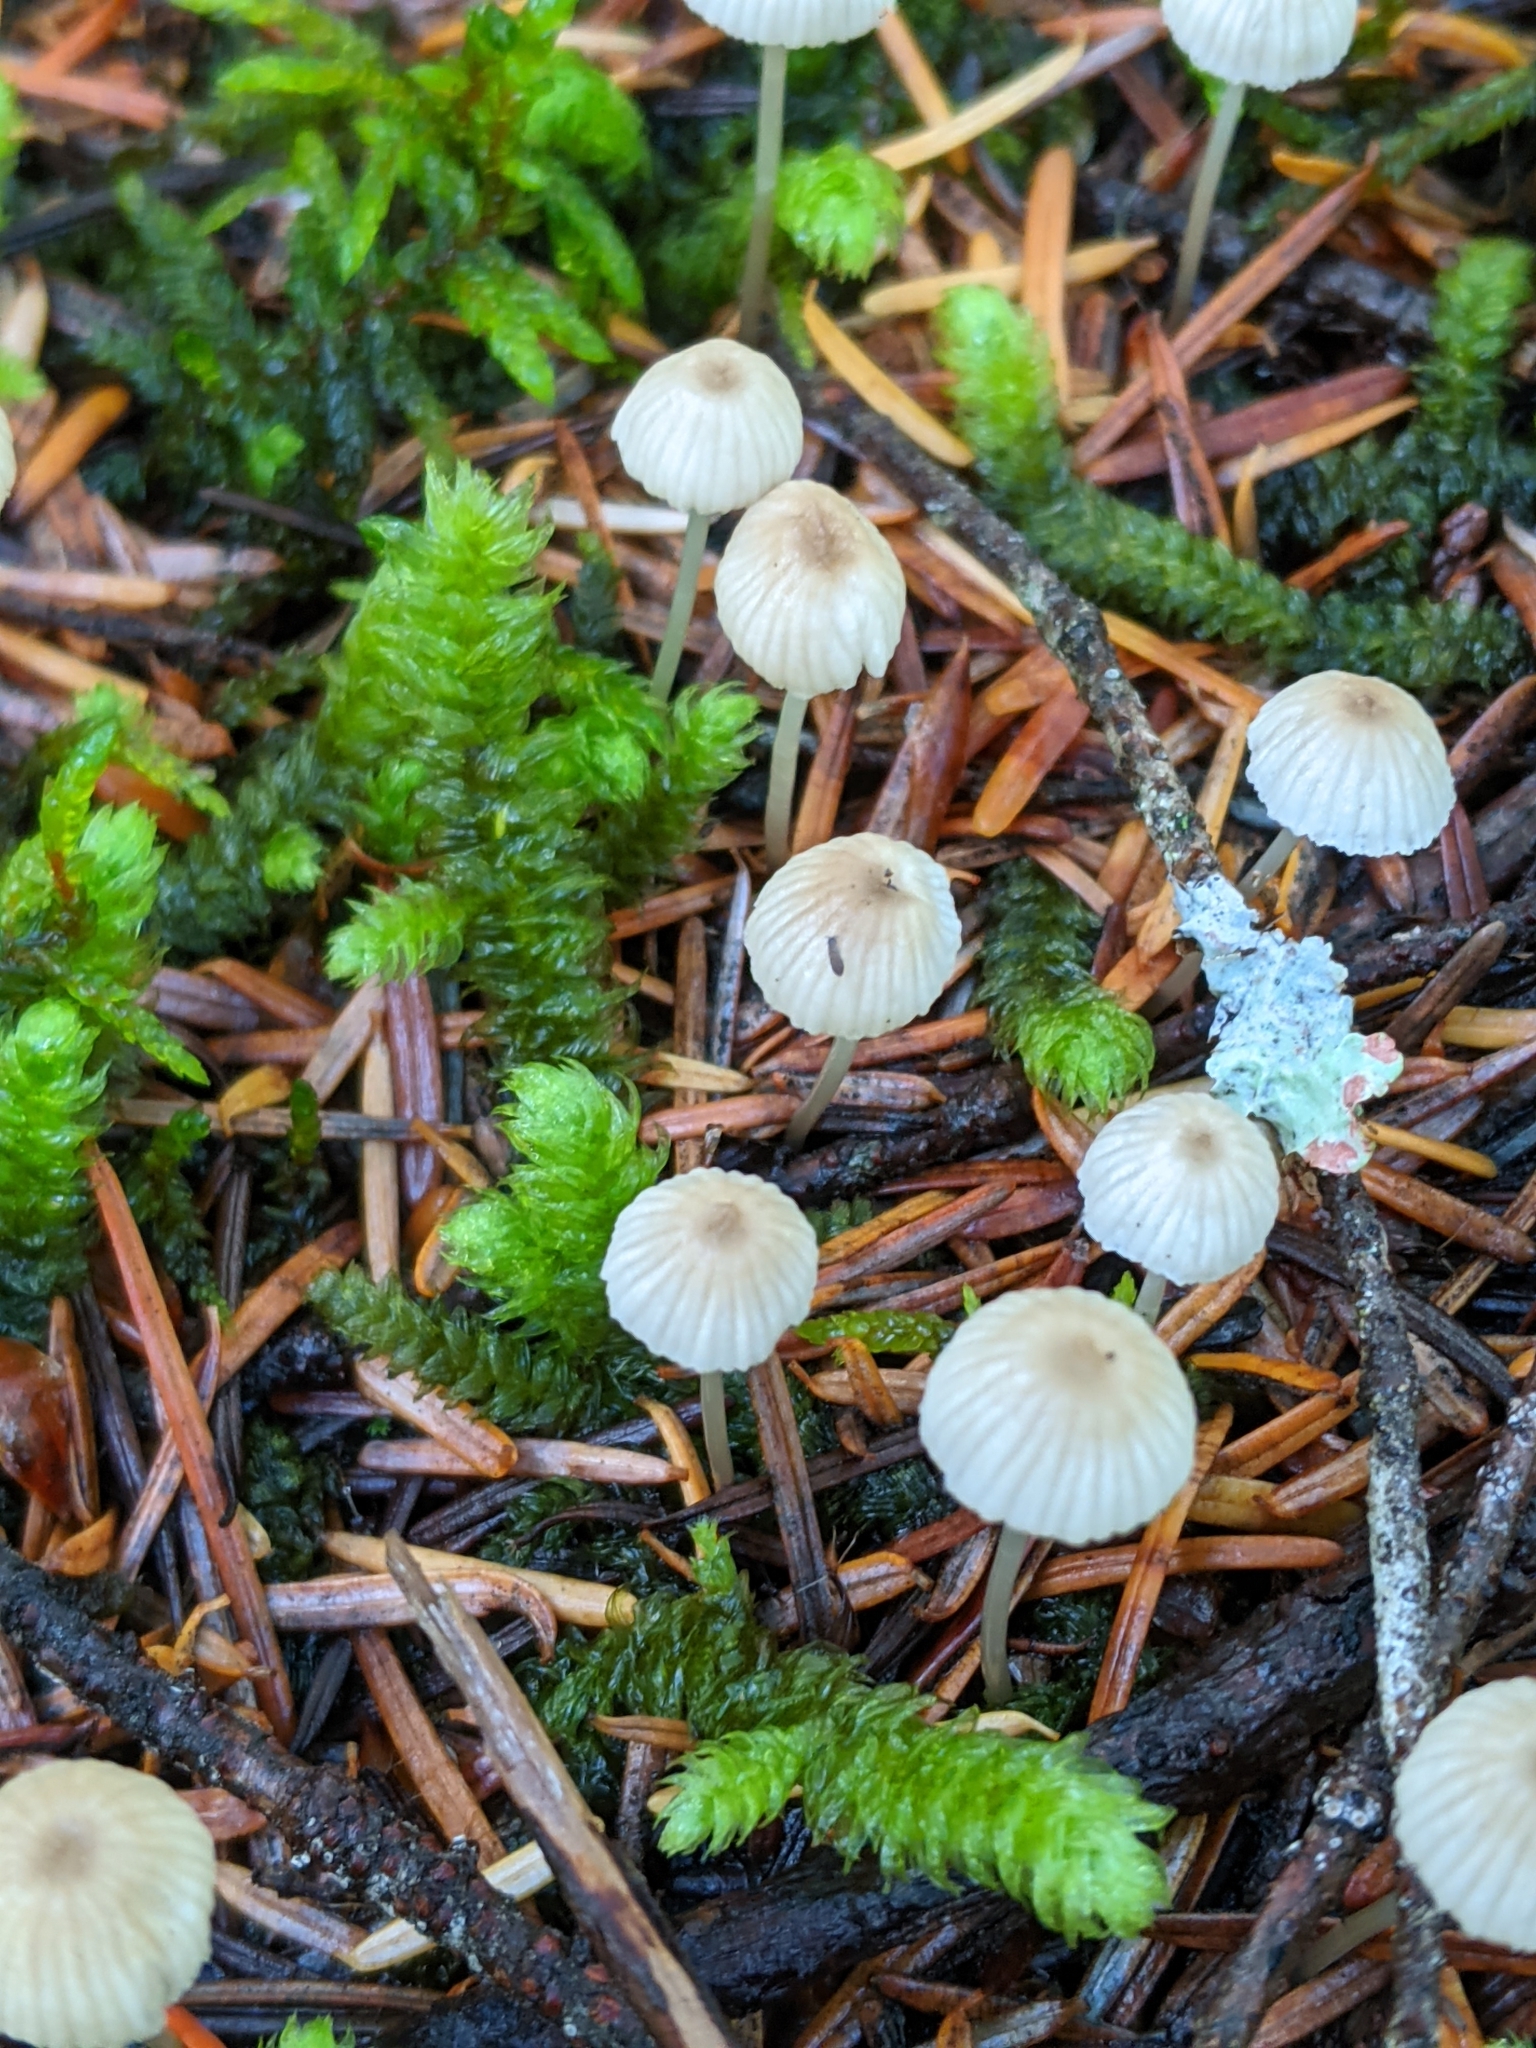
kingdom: Fungi
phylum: Basidiomycota
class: Agaricomycetes
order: Agaricales
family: Hygrophoraceae
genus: Lichenomphalia
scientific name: Lichenomphalia
